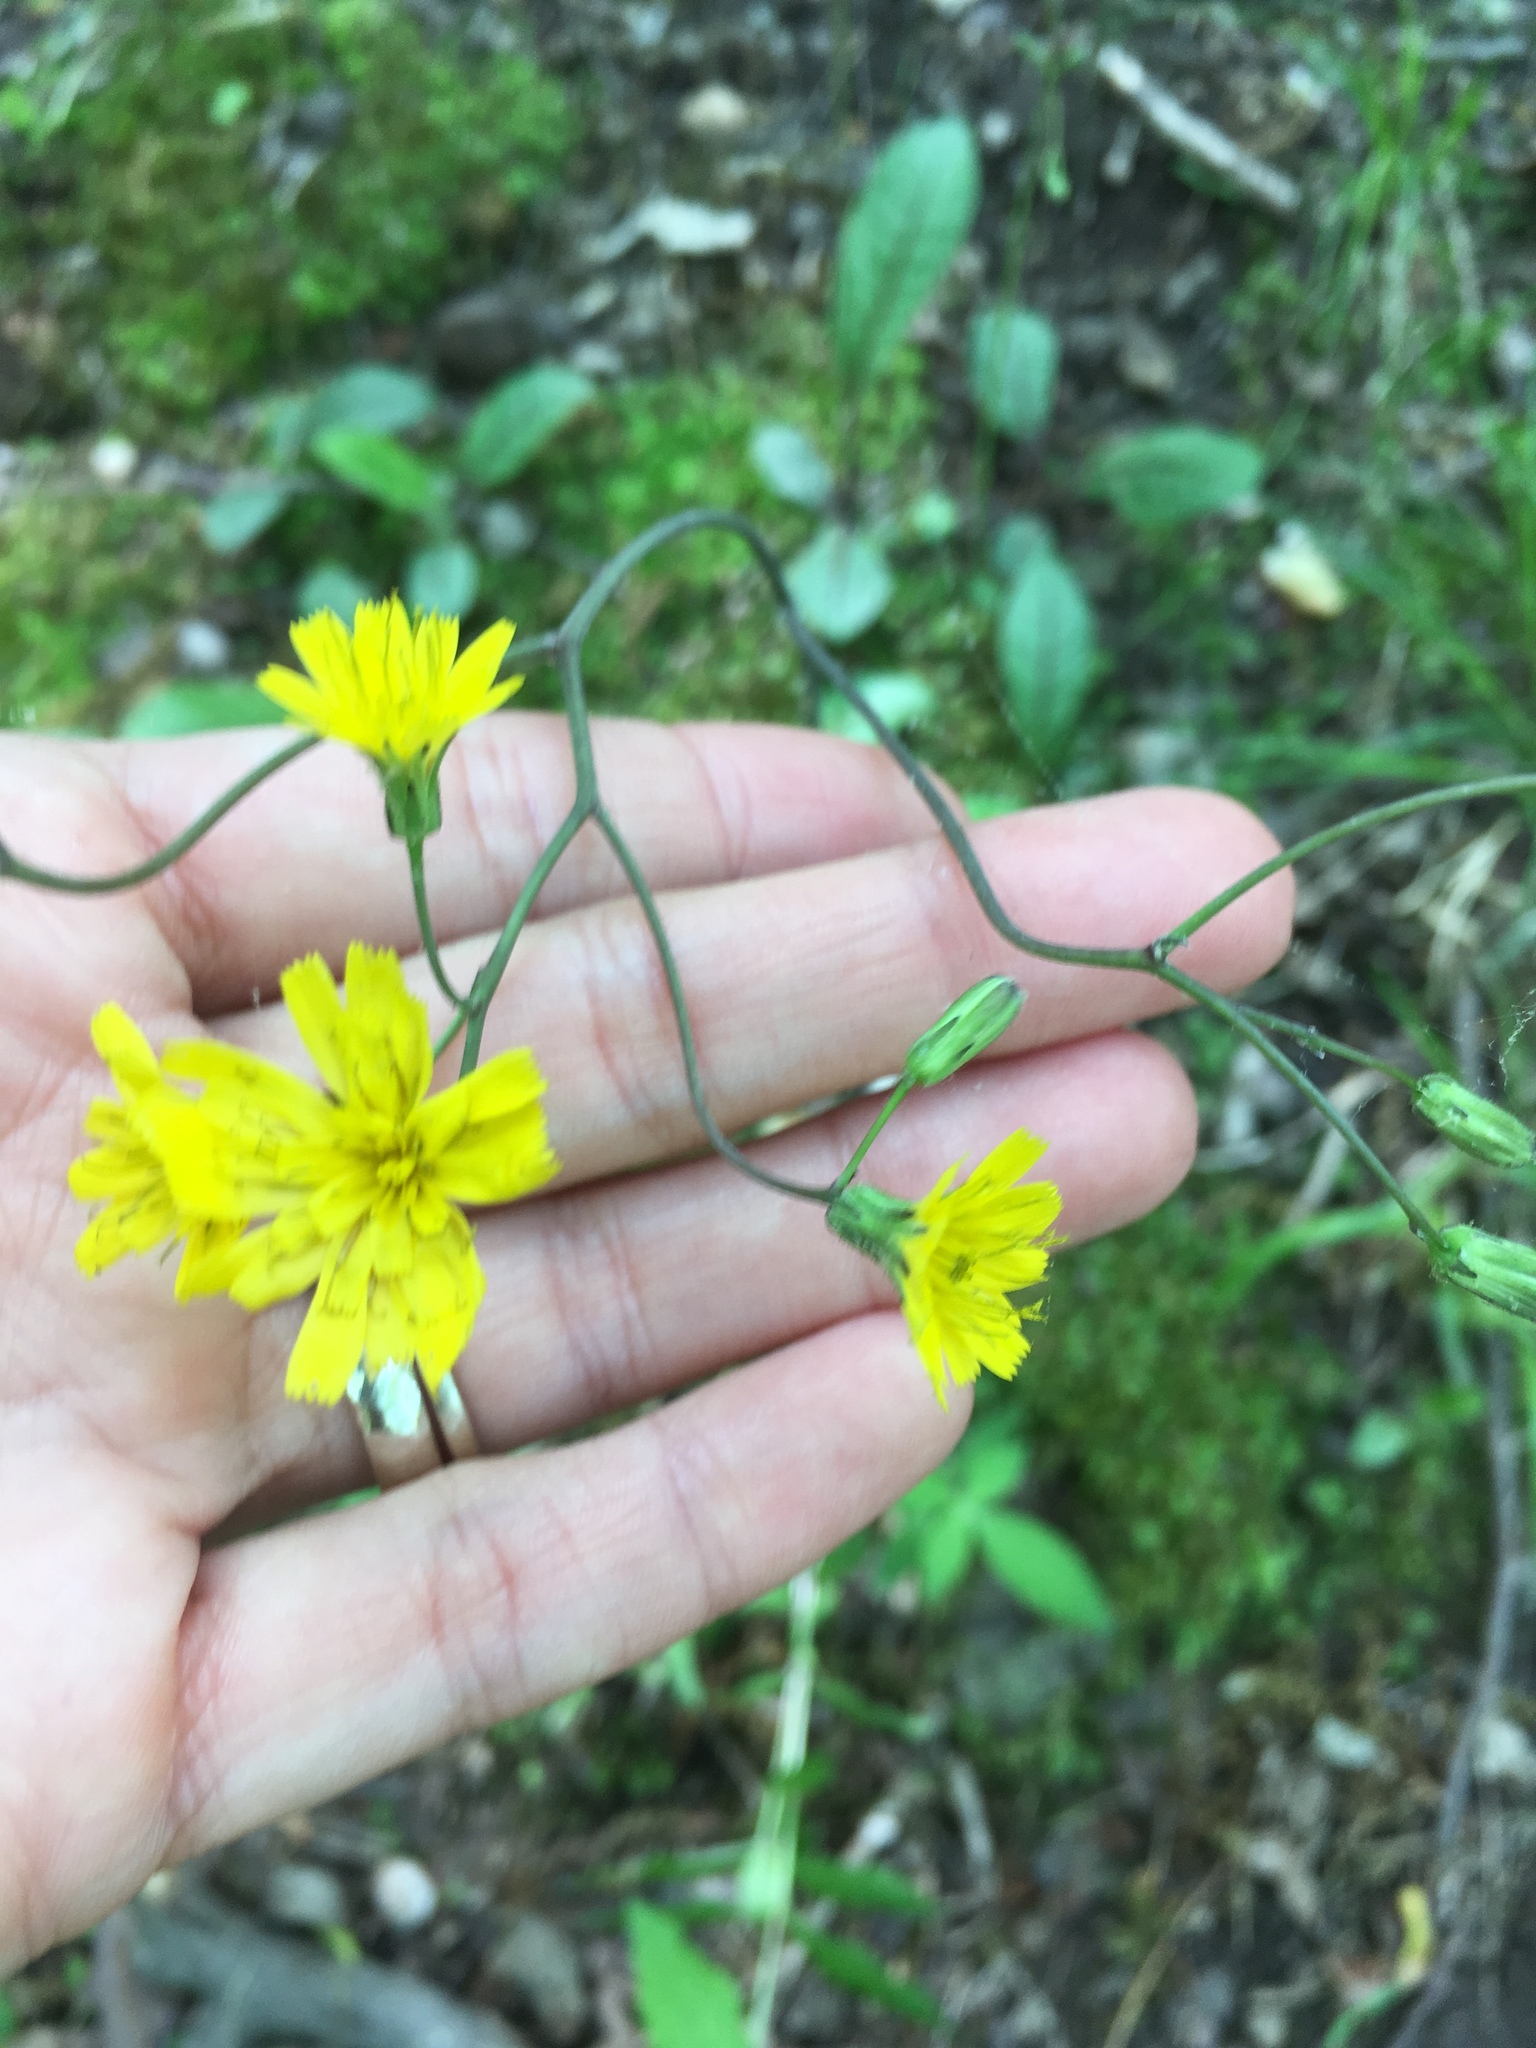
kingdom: Plantae
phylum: Tracheophyta
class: Magnoliopsida
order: Asterales
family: Asteraceae
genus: Hieracium
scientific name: Hieracium venosum
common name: Rattlesnake hawkweed
